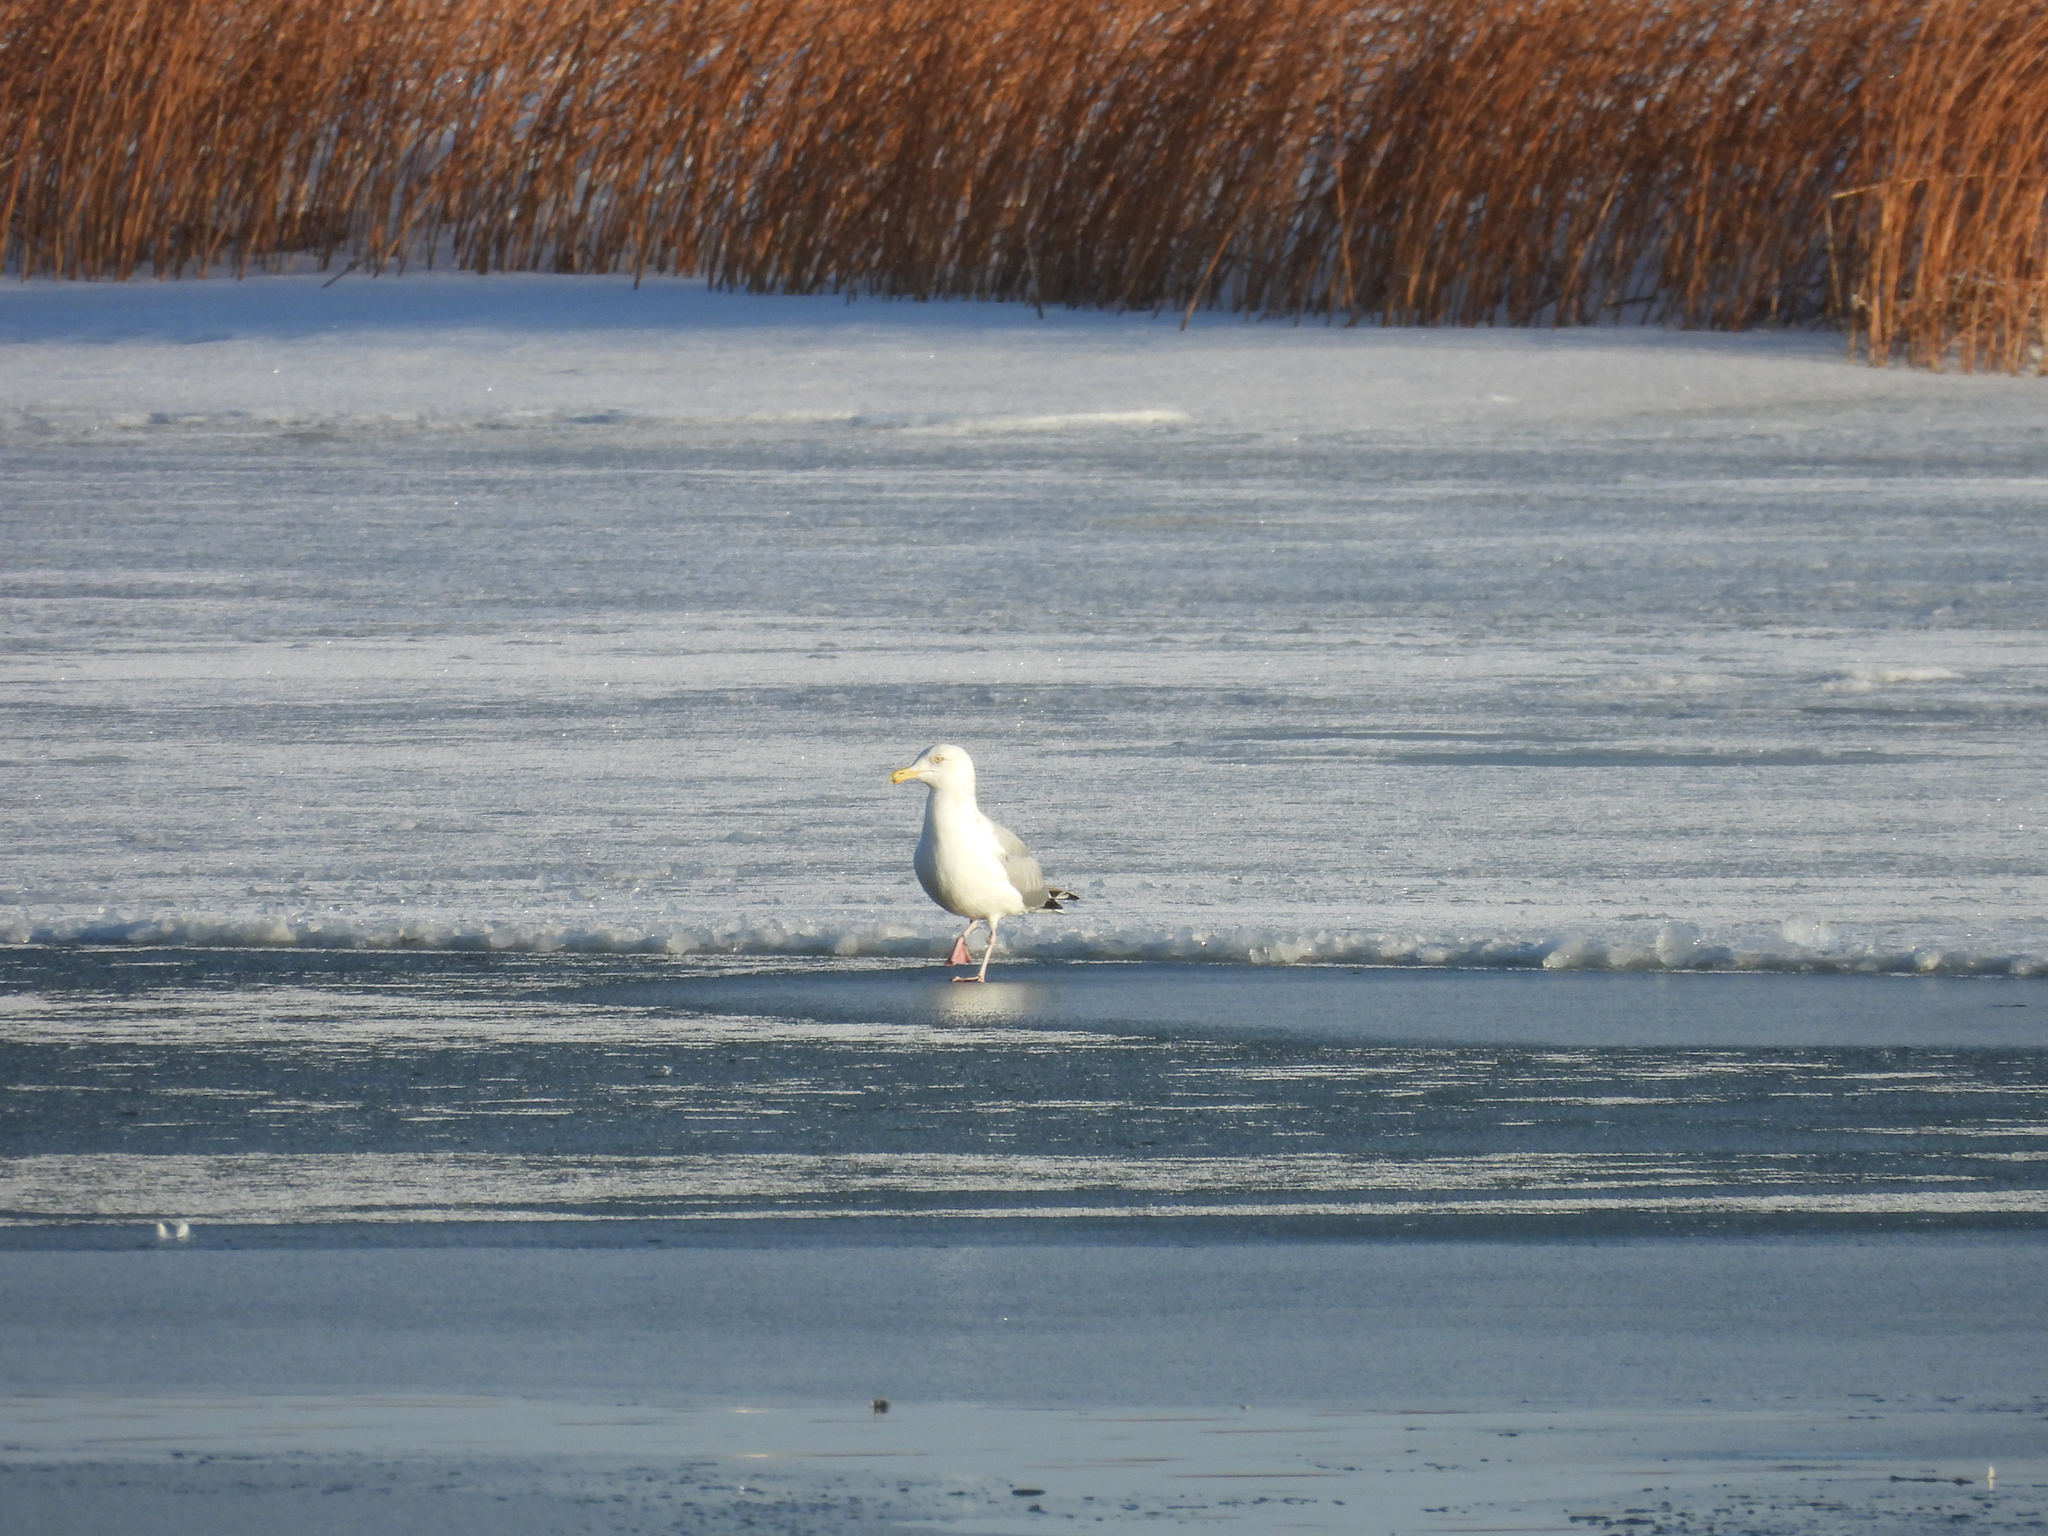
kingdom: Animalia
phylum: Chordata
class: Aves
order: Charadriiformes
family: Laridae
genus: Larus
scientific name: Larus argentatus
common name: Herring gull
